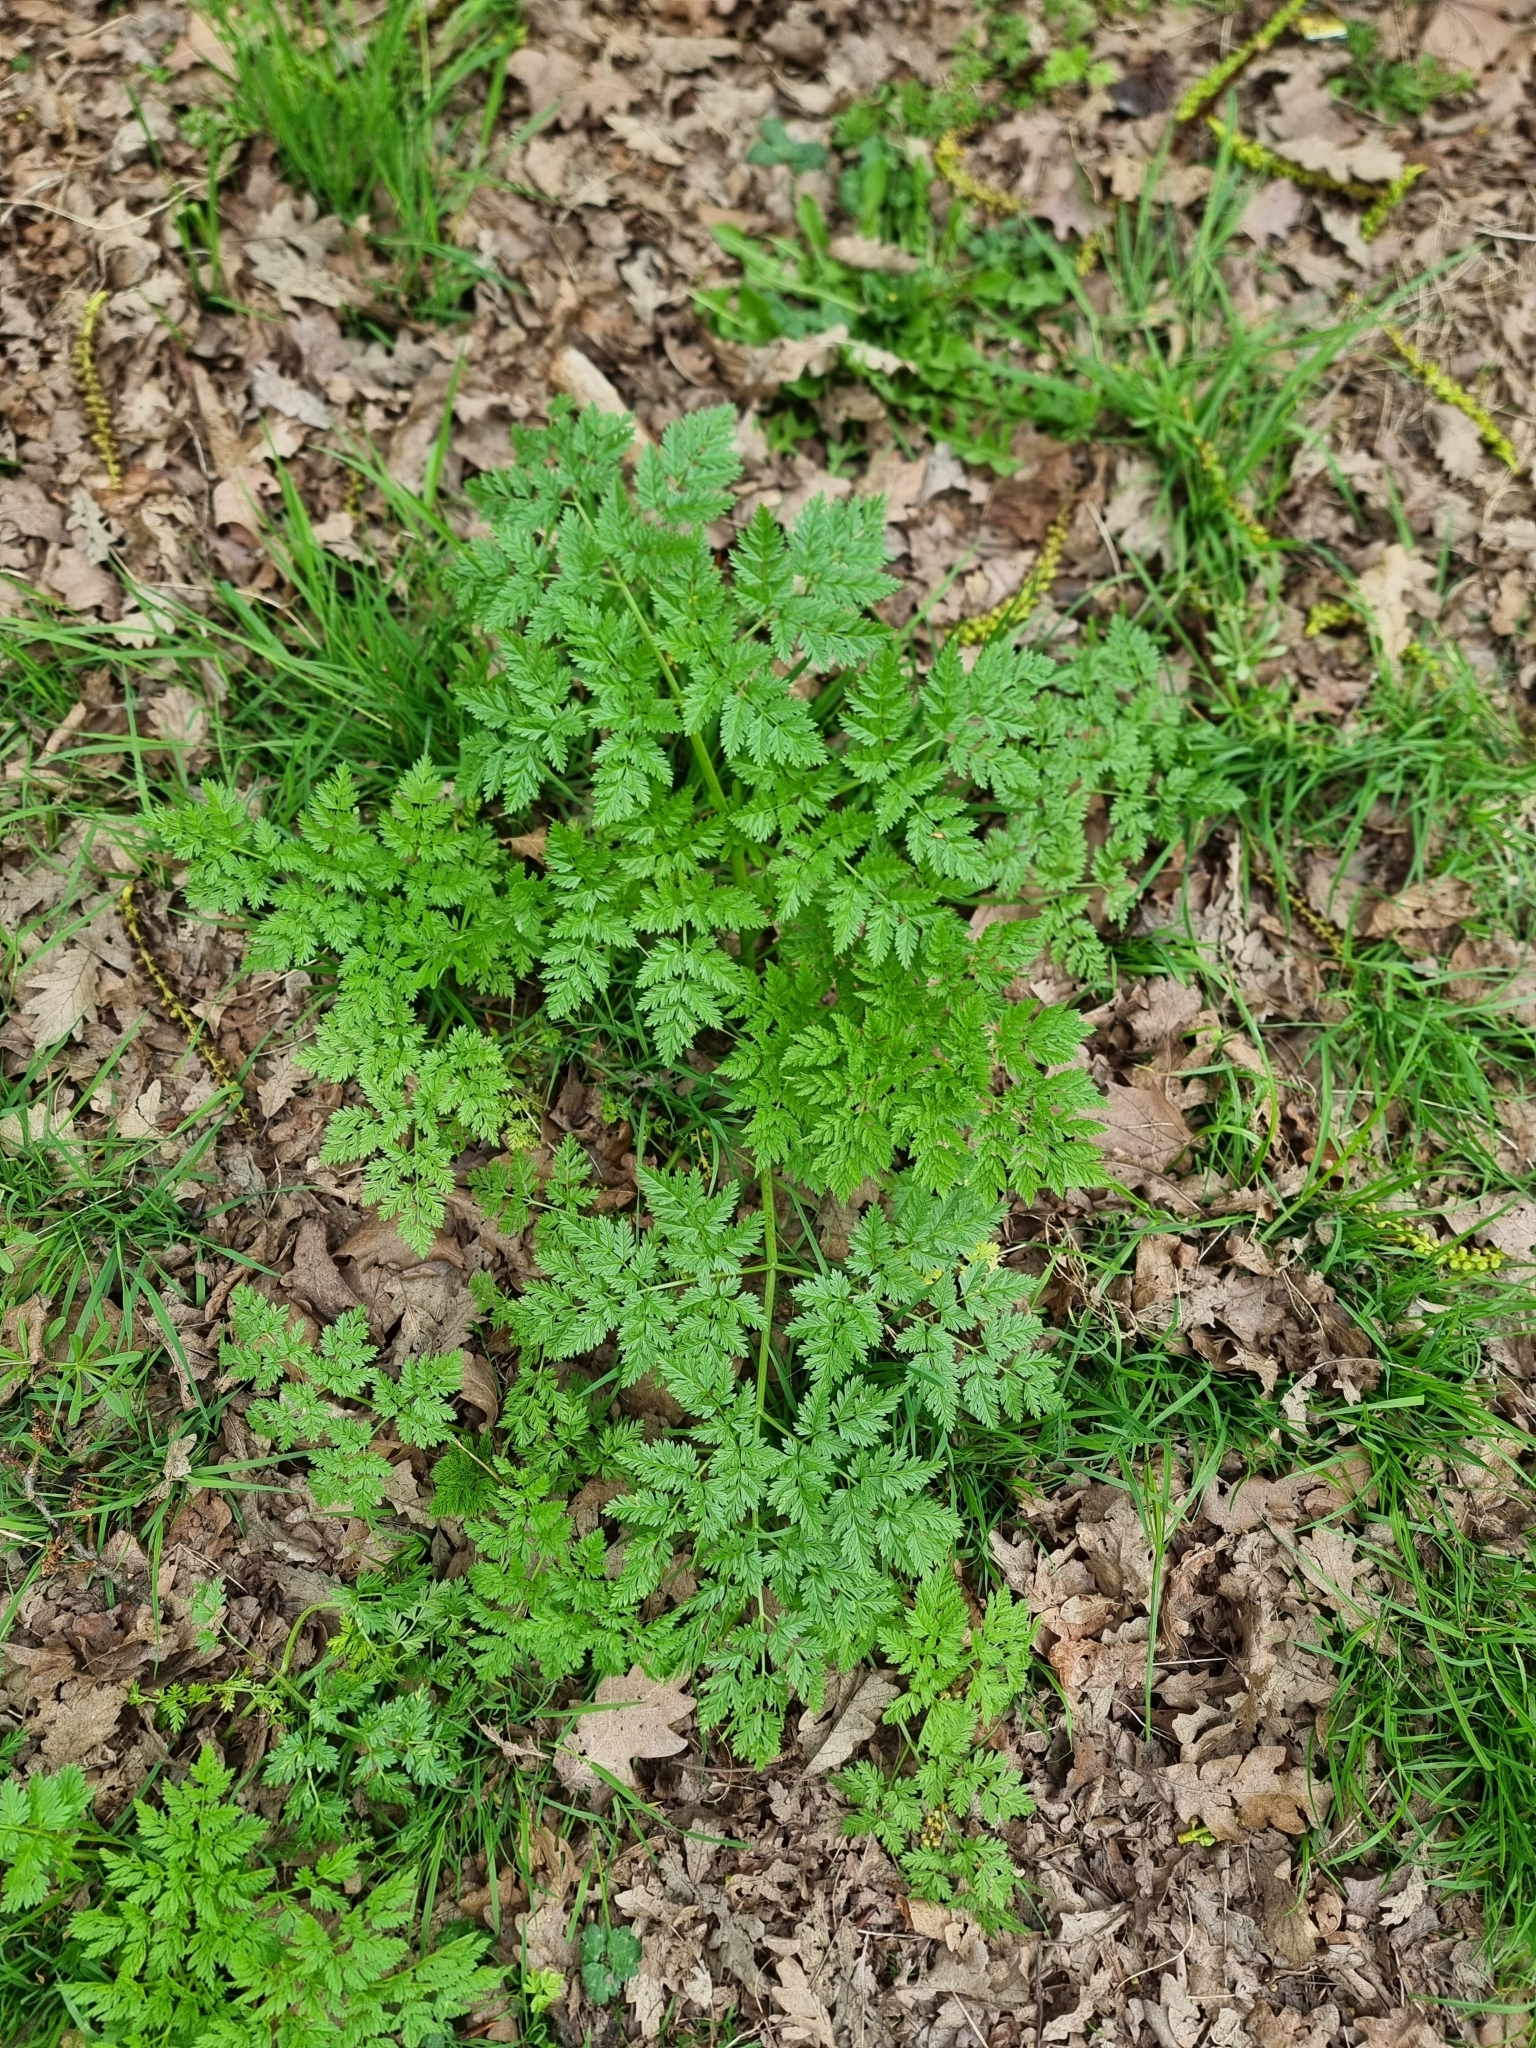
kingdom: Plantae
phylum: Tracheophyta
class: Magnoliopsida
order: Apiales
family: Apiaceae
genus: Conium
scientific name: Conium maculatum
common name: Hemlock
